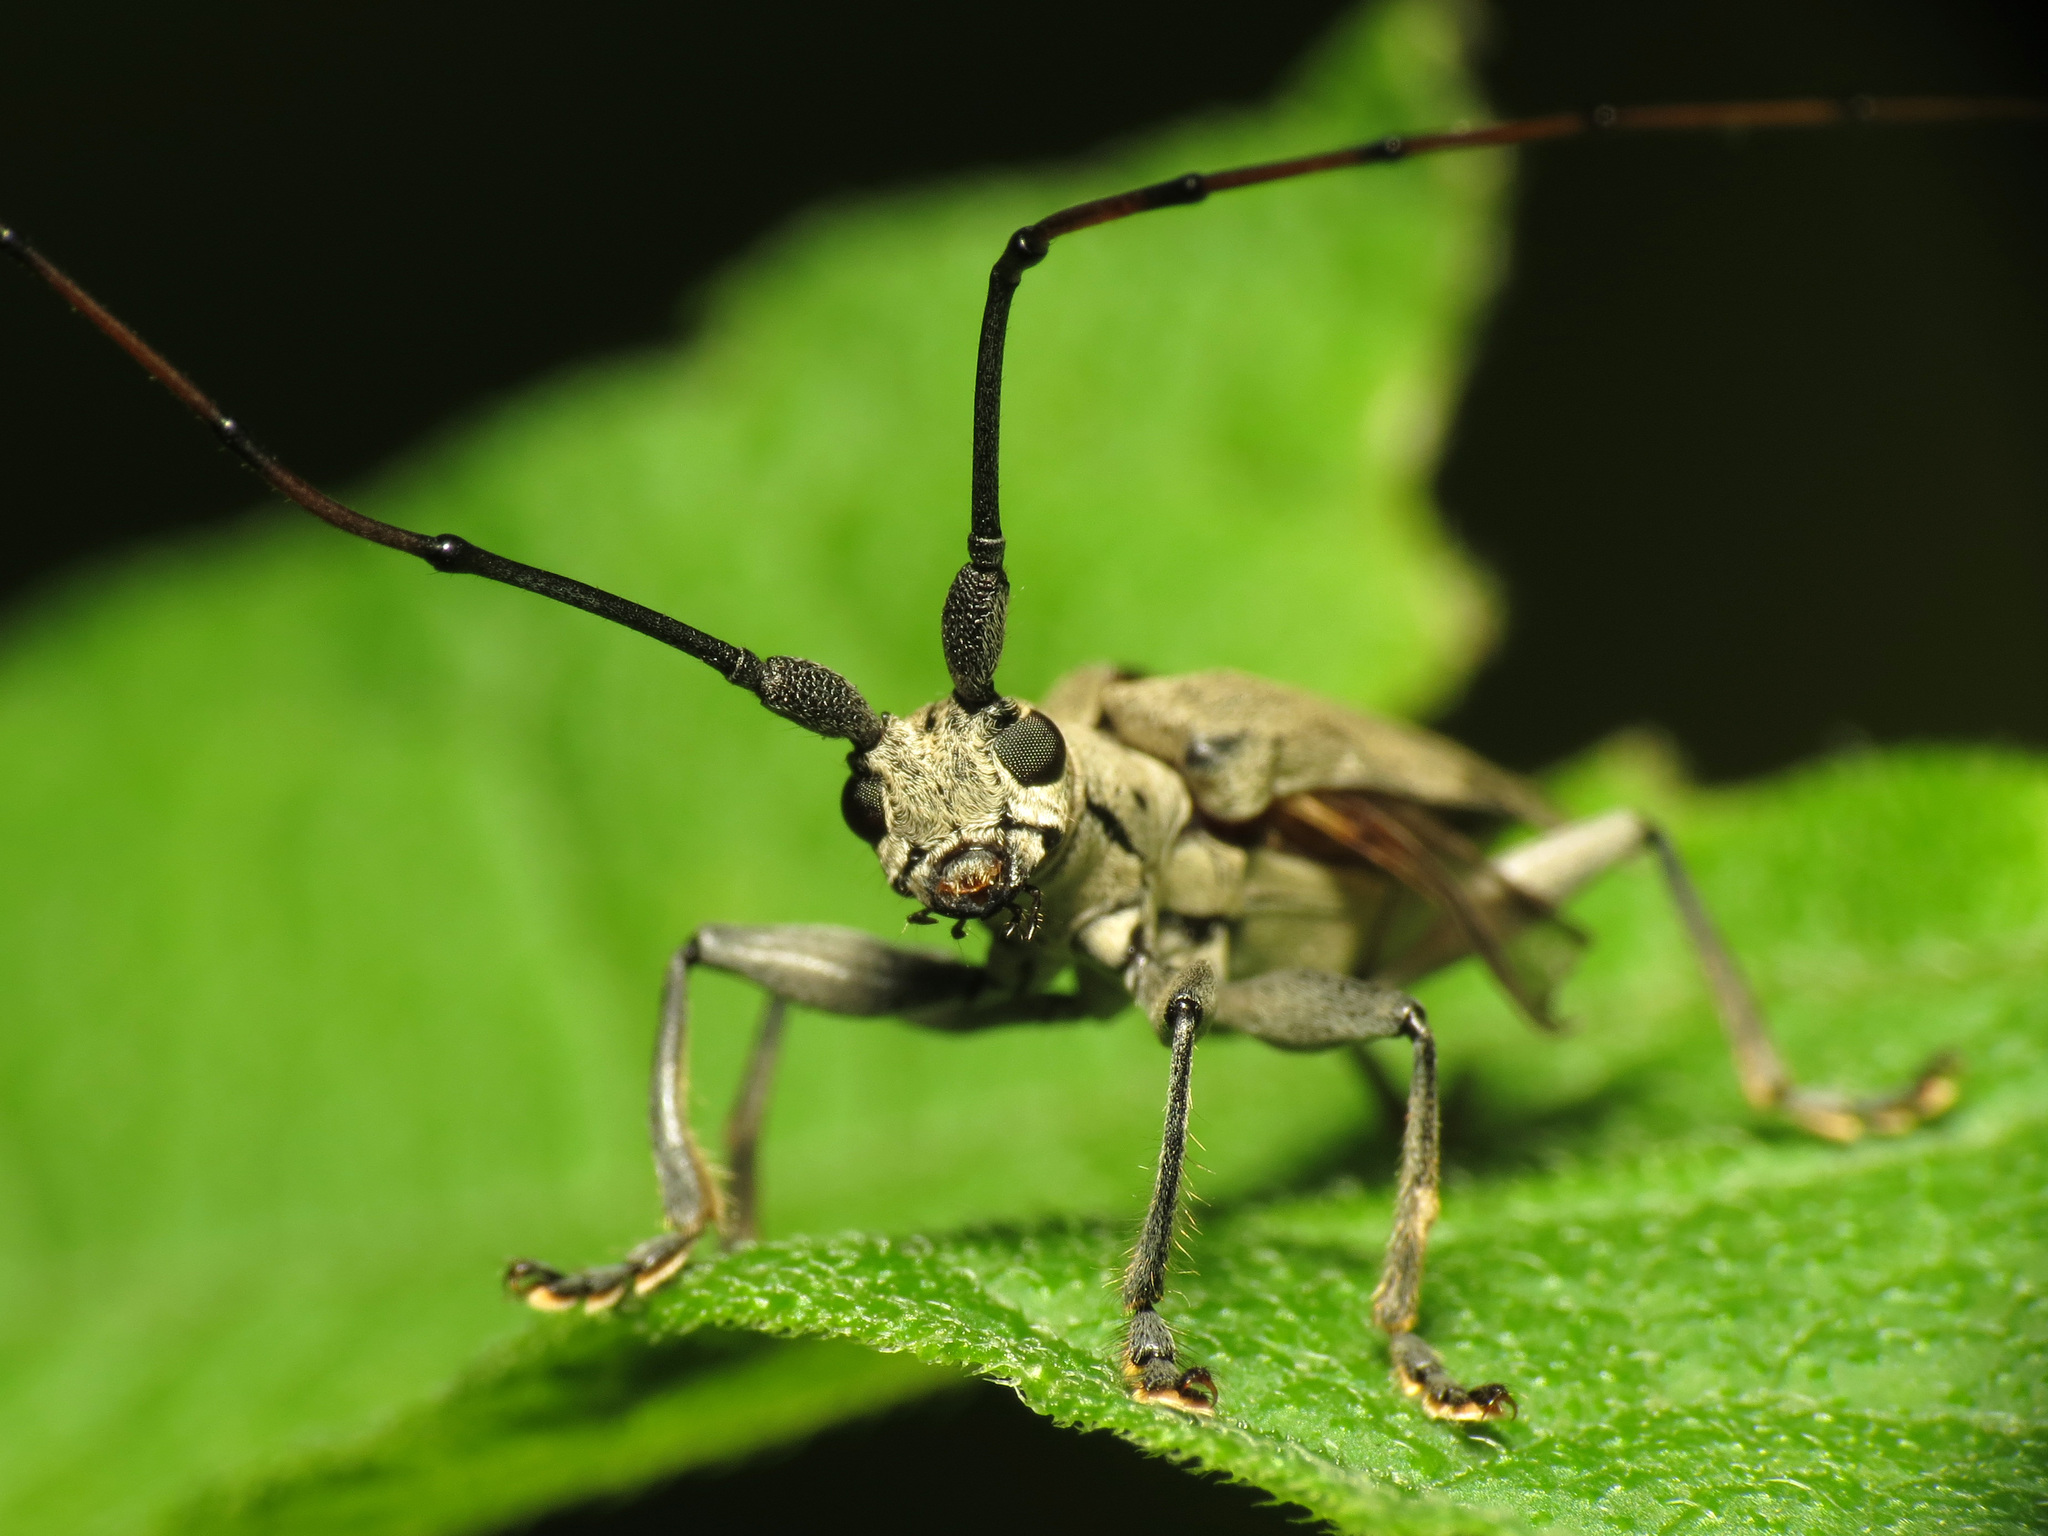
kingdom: Animalia
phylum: Arthropoda
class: Insecta
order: Coleoptera
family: Cerambycidae
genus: Dorcaschema
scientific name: Dorcaschema cinereum
